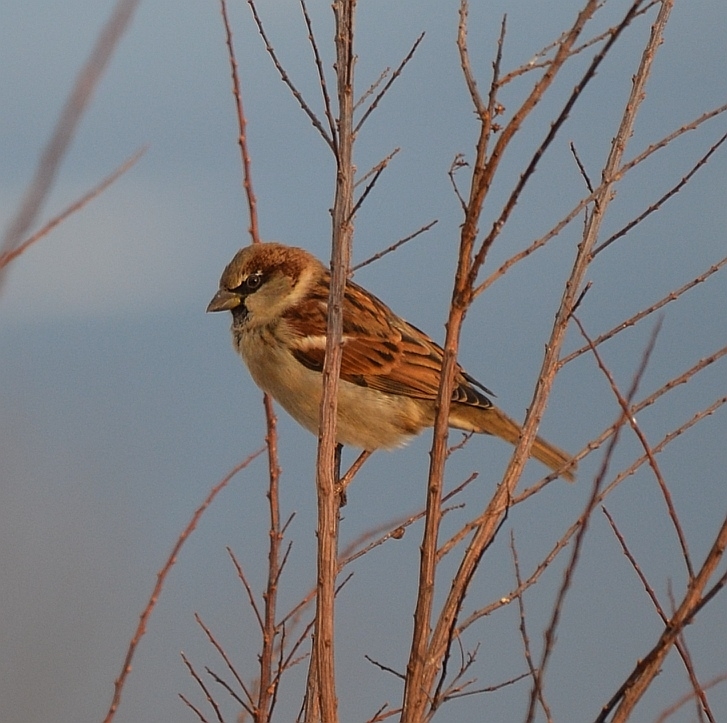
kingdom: Animalia
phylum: Chordata
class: Aves
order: Passeriformes
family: Passeridae
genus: Passer
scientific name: Passer domesticus
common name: House sparrow
